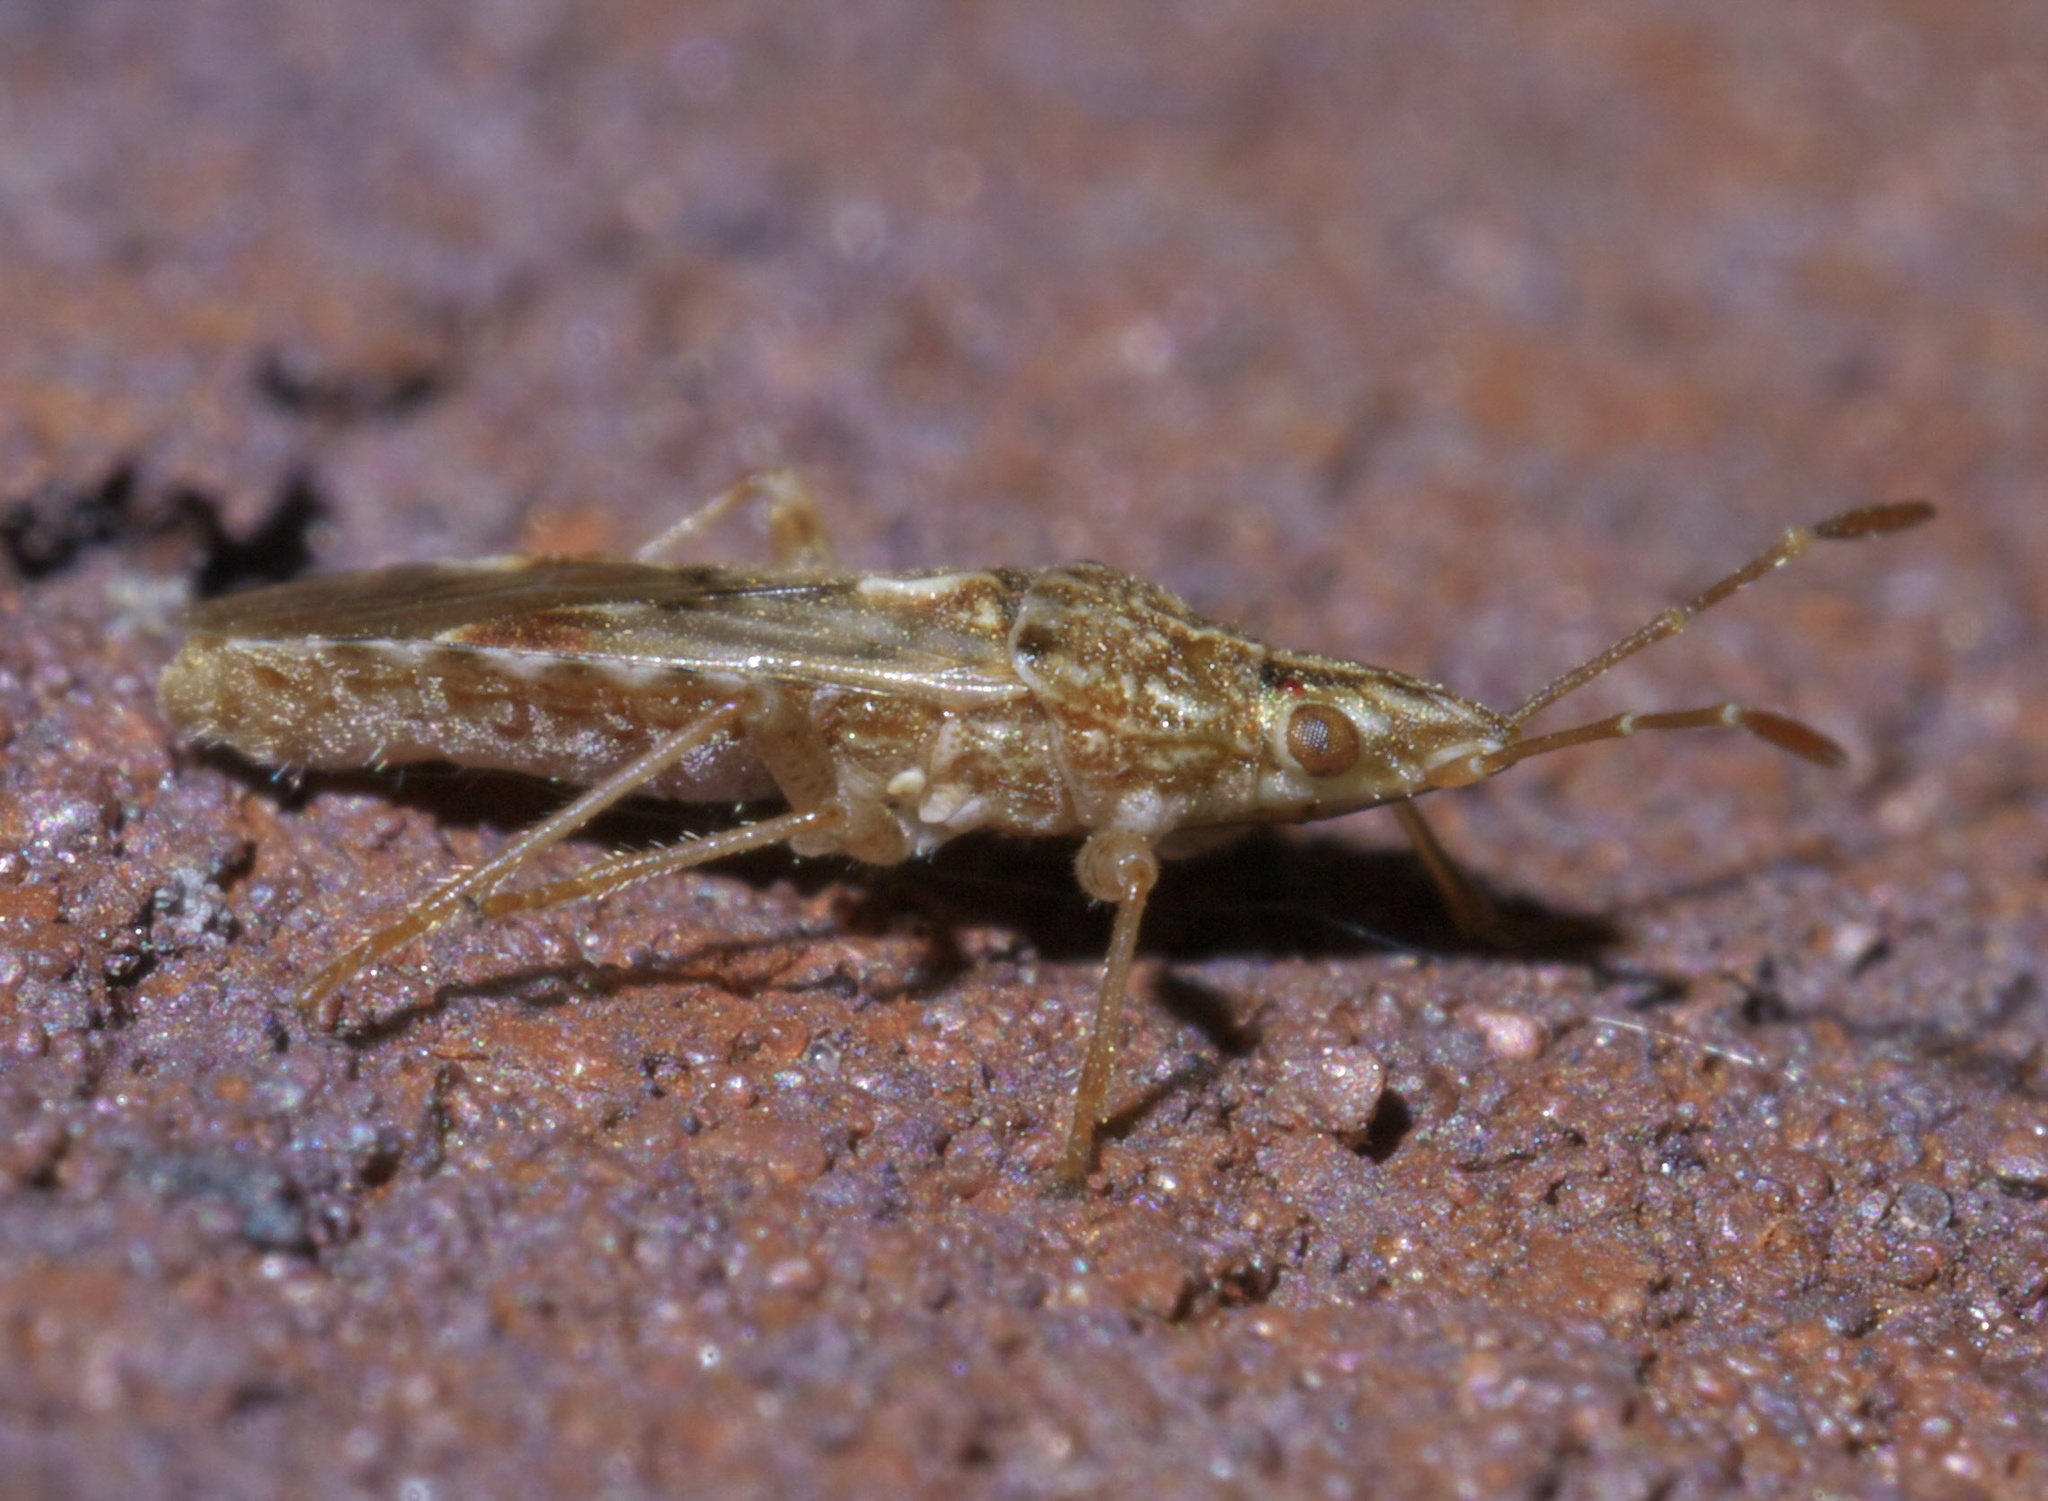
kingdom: Animalia
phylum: Arthropoda
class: Insecta
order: Hemiptera
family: Lygaeidae
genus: Belonochilus
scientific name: Belonochilus numenius
